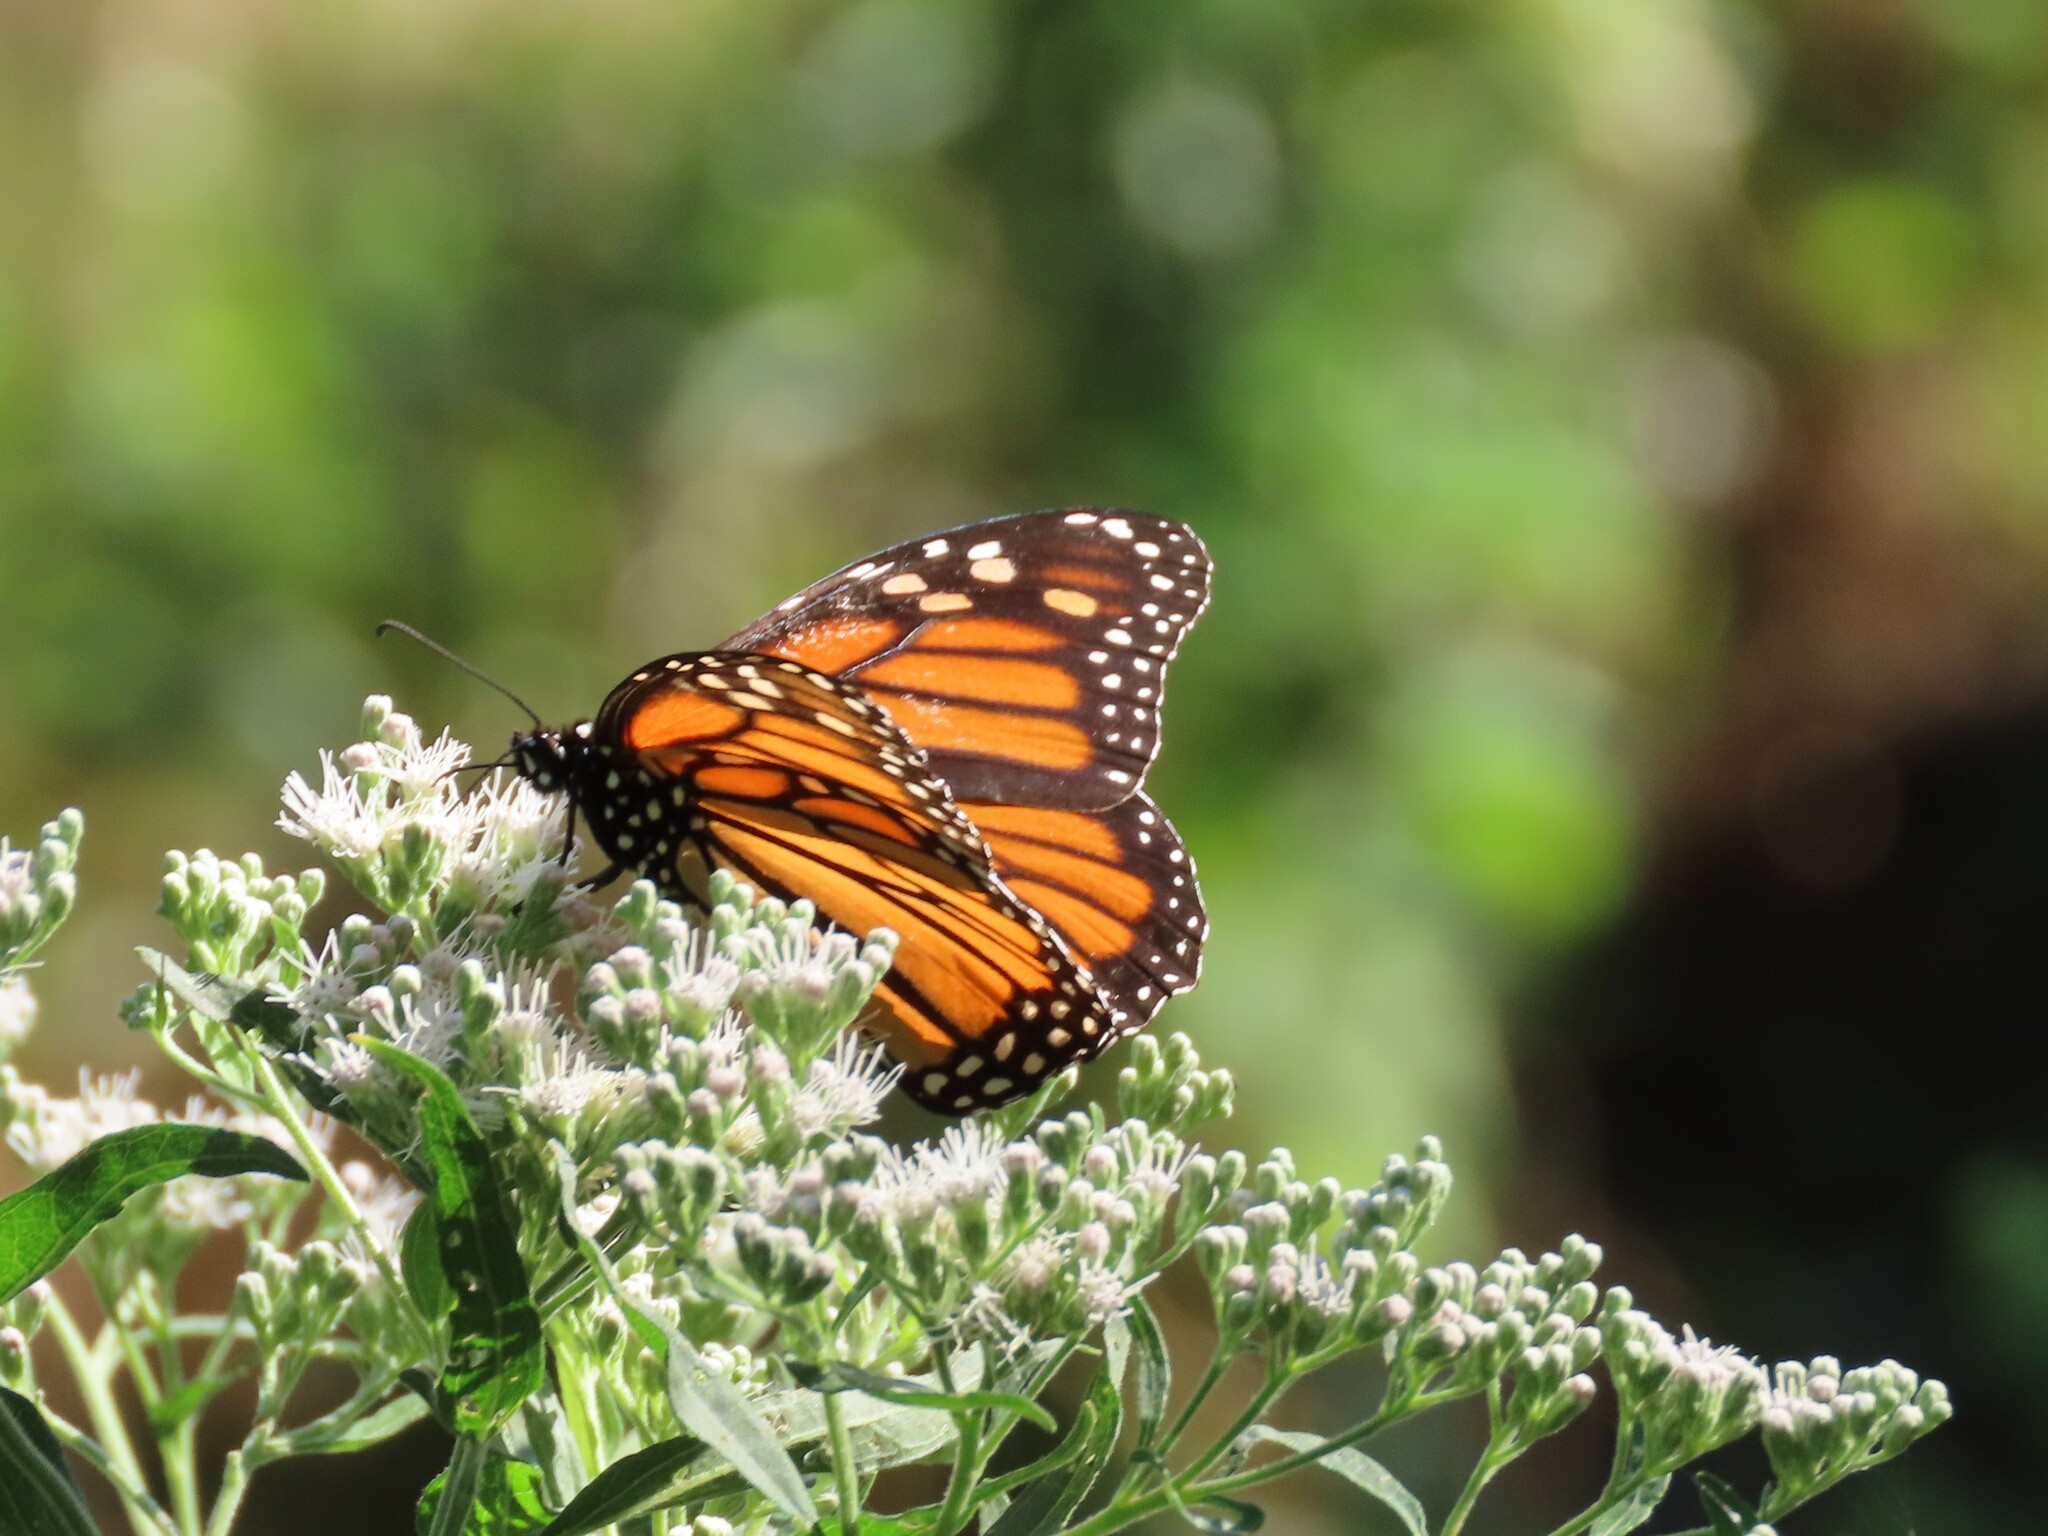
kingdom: Animalia
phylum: Arthropoda
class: Insecta
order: Lepidoptera
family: Nymphalidae
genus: Danaus
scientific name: Danaus plexippus
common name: Monarch
